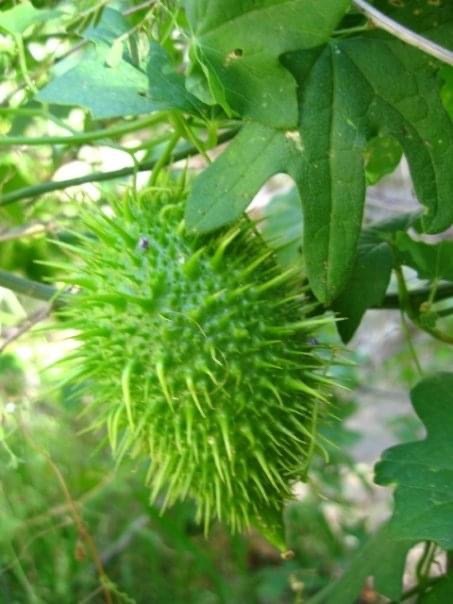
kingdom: Plantae
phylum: Tracheophyta
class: Magnoliopsida
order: Cucurbitales
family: Cucurbitaceae
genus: Marah
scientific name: Marah macrocarpa
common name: Cucamonga manroot
